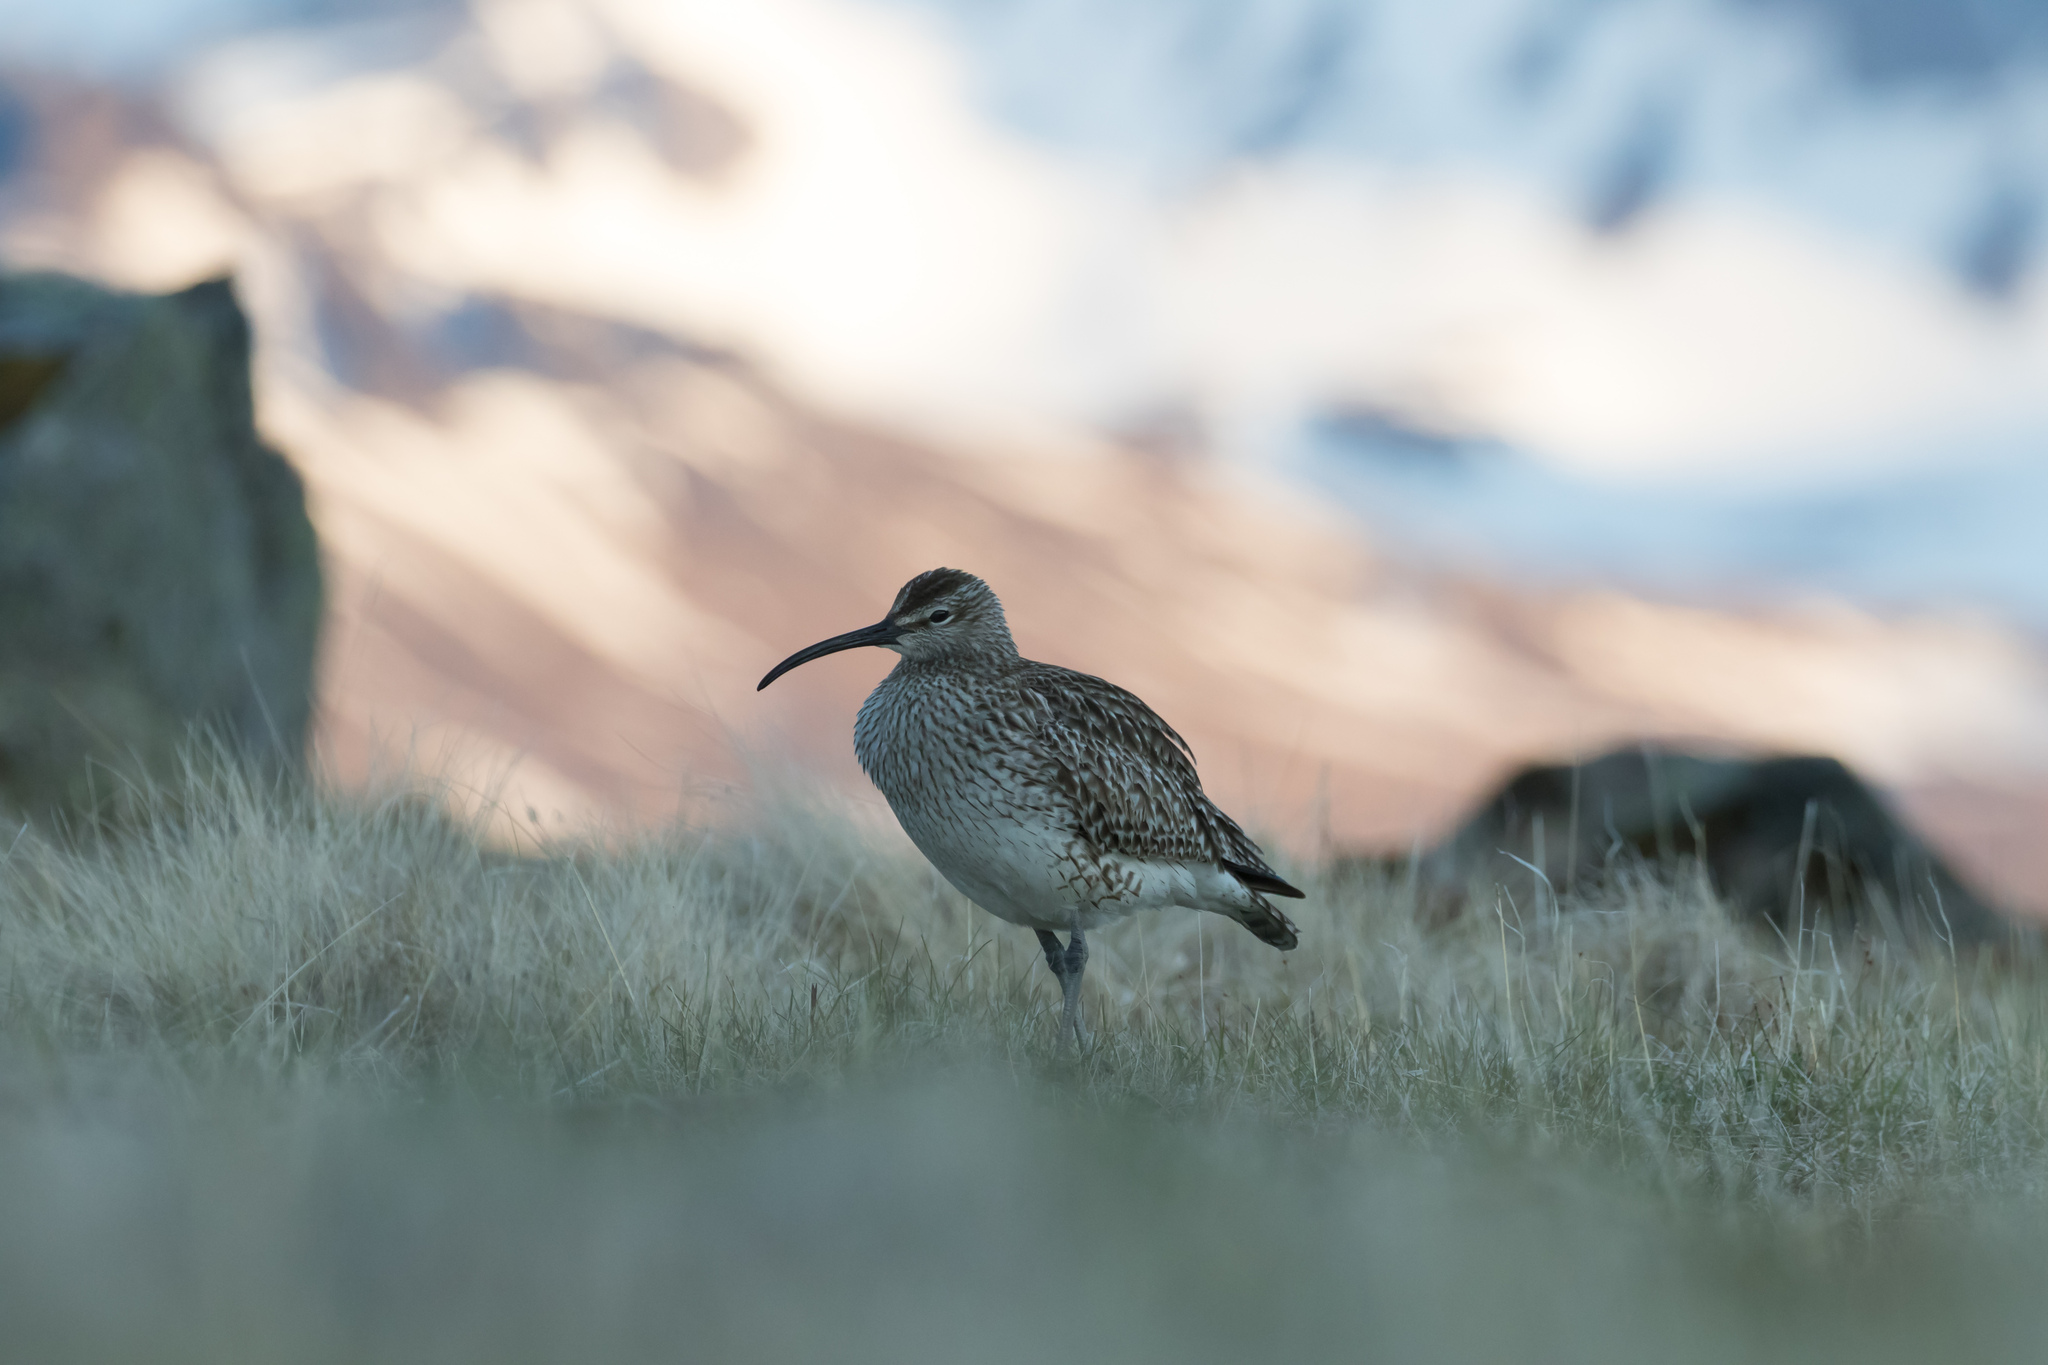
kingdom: Animalia
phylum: Chordata
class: Aves
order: Charadriiformes
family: Scolopacidae
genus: Numenius
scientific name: Numenius phaeopus
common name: Whimbrel
